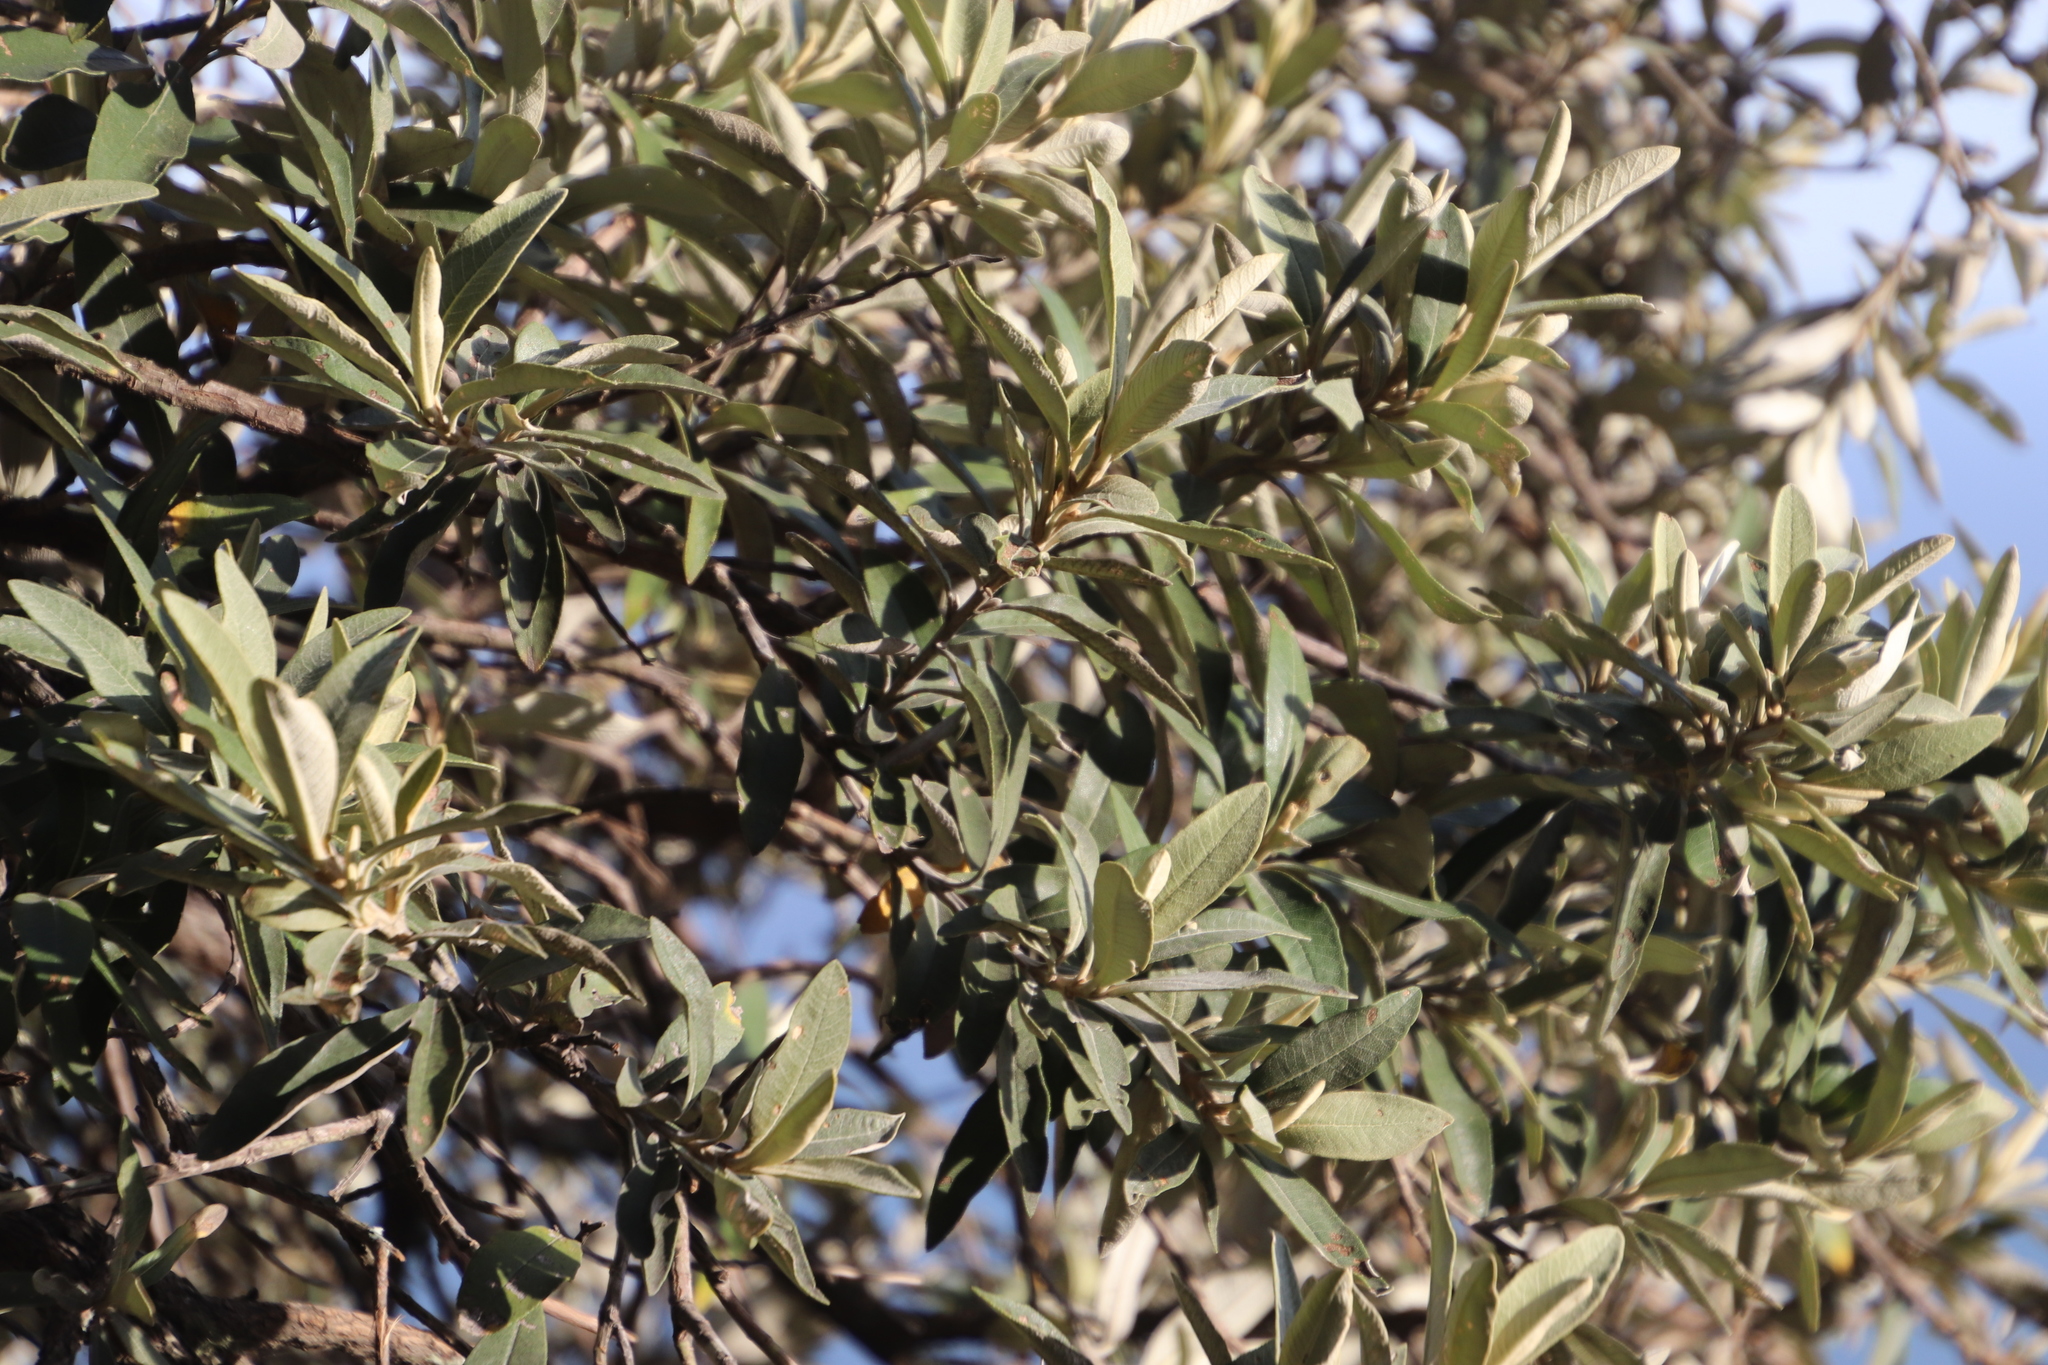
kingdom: Plantae
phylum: Tracheophyta
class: Magnoliopsida
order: Asterales
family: Asteraceae
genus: Tarchonanthus
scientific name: Tarchonanthus littoralis
